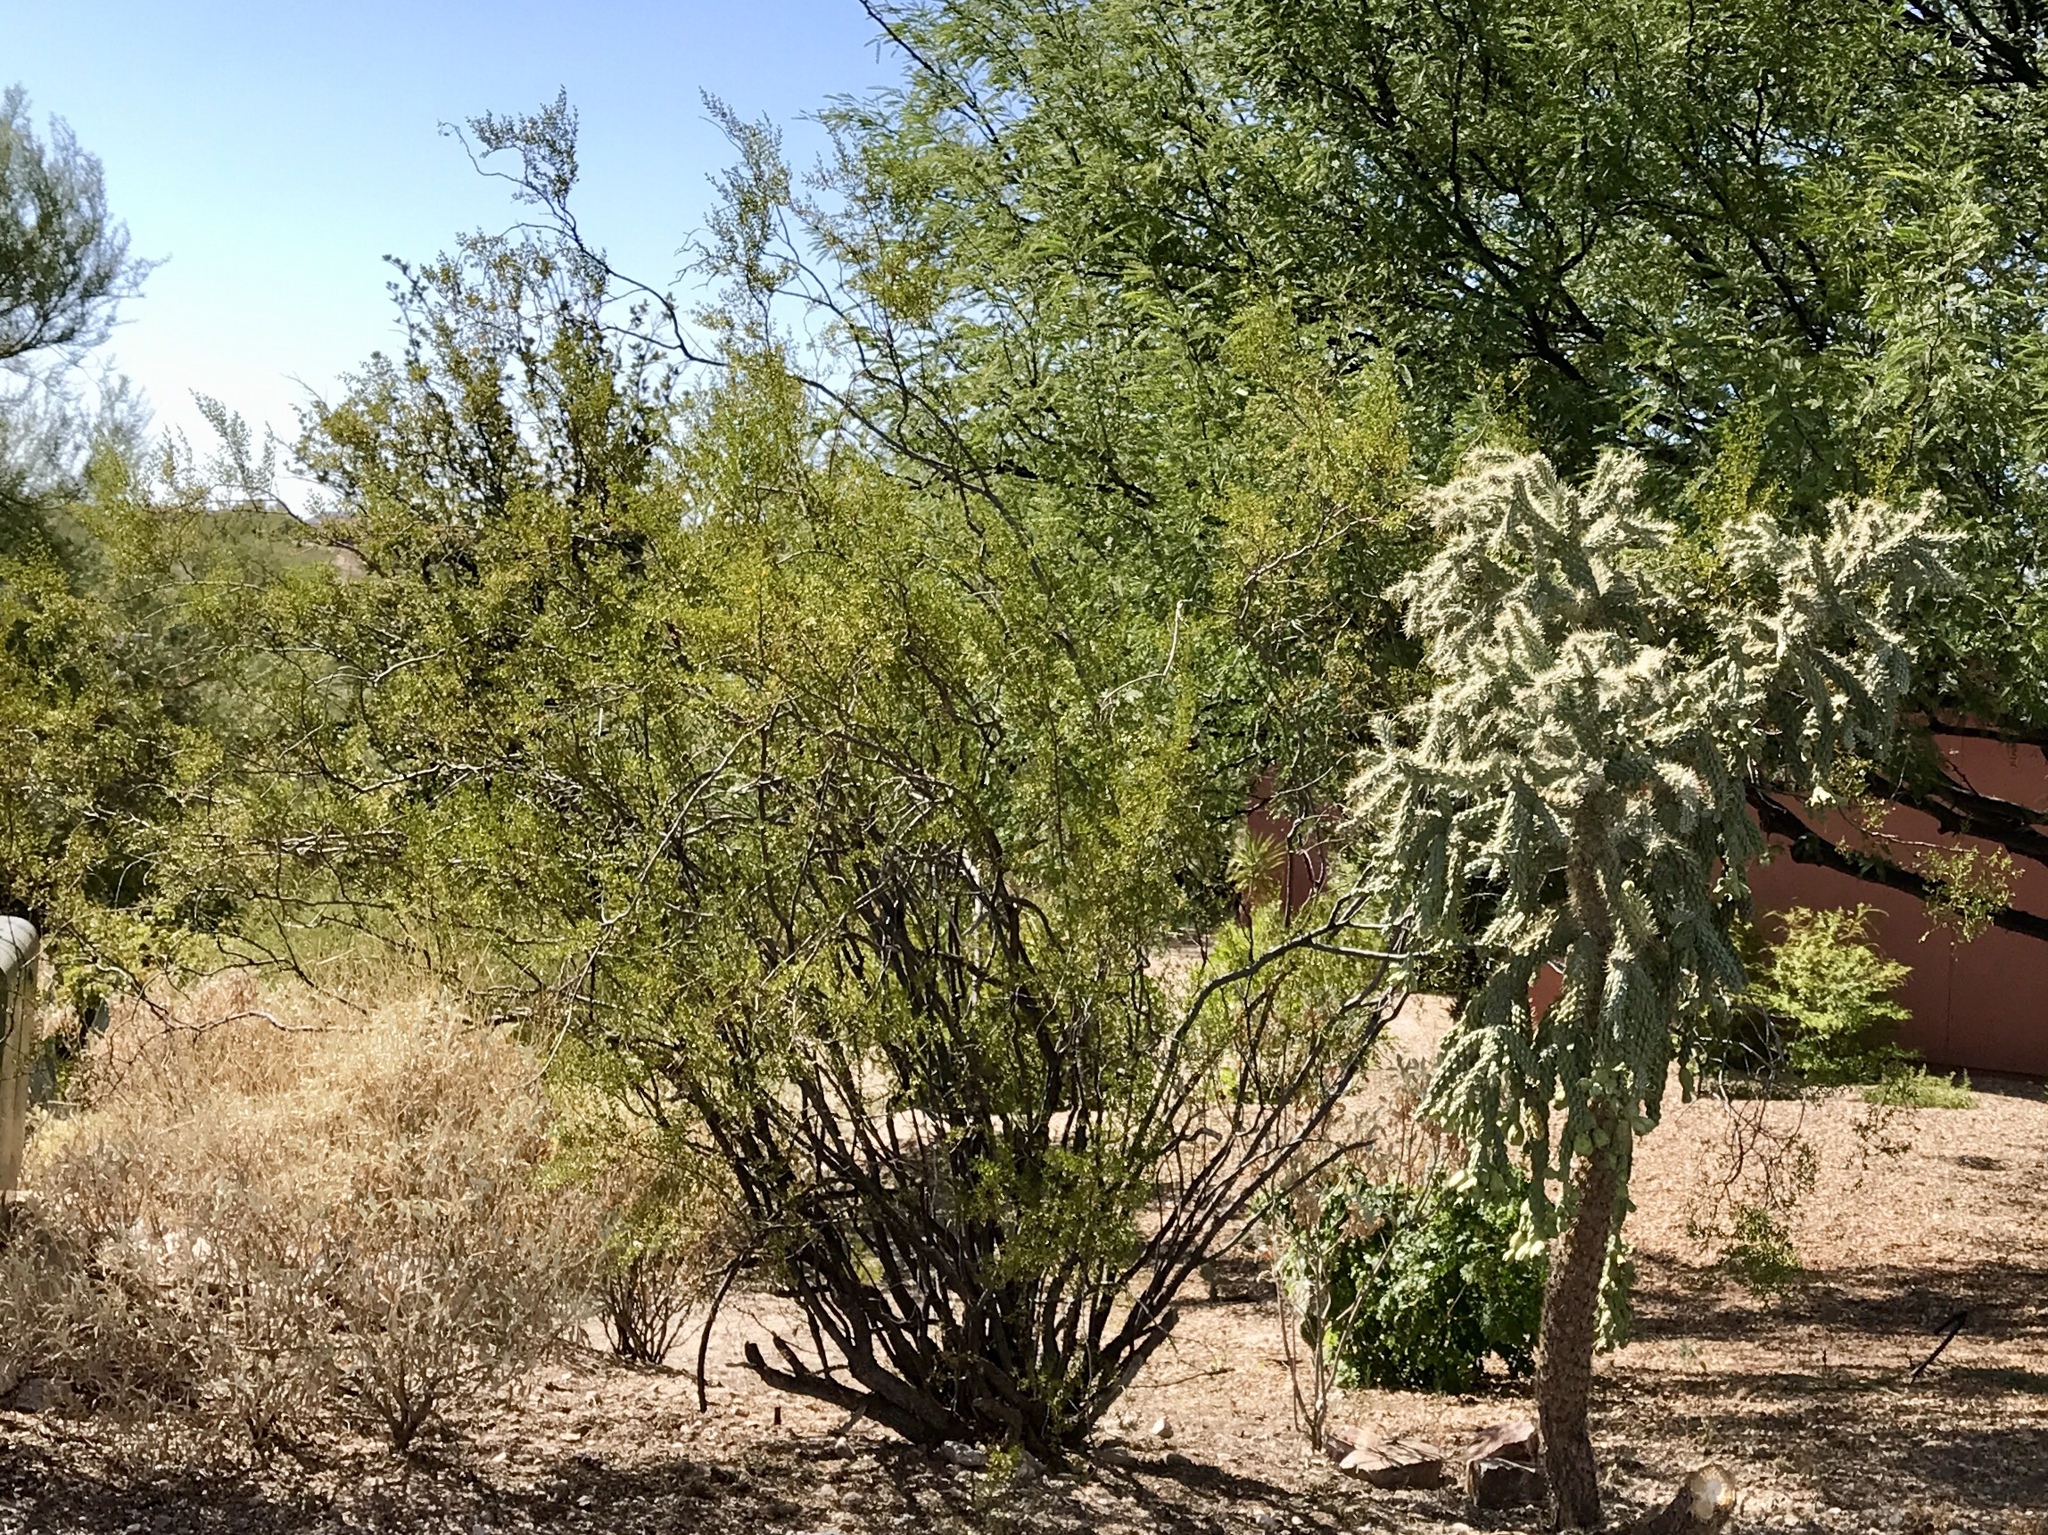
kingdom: Plantae
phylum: Tracheophyta
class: Magnoliopsida
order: Zygophyllales
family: Zygophyllaceae
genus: Larrea
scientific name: Larrea tridentata
